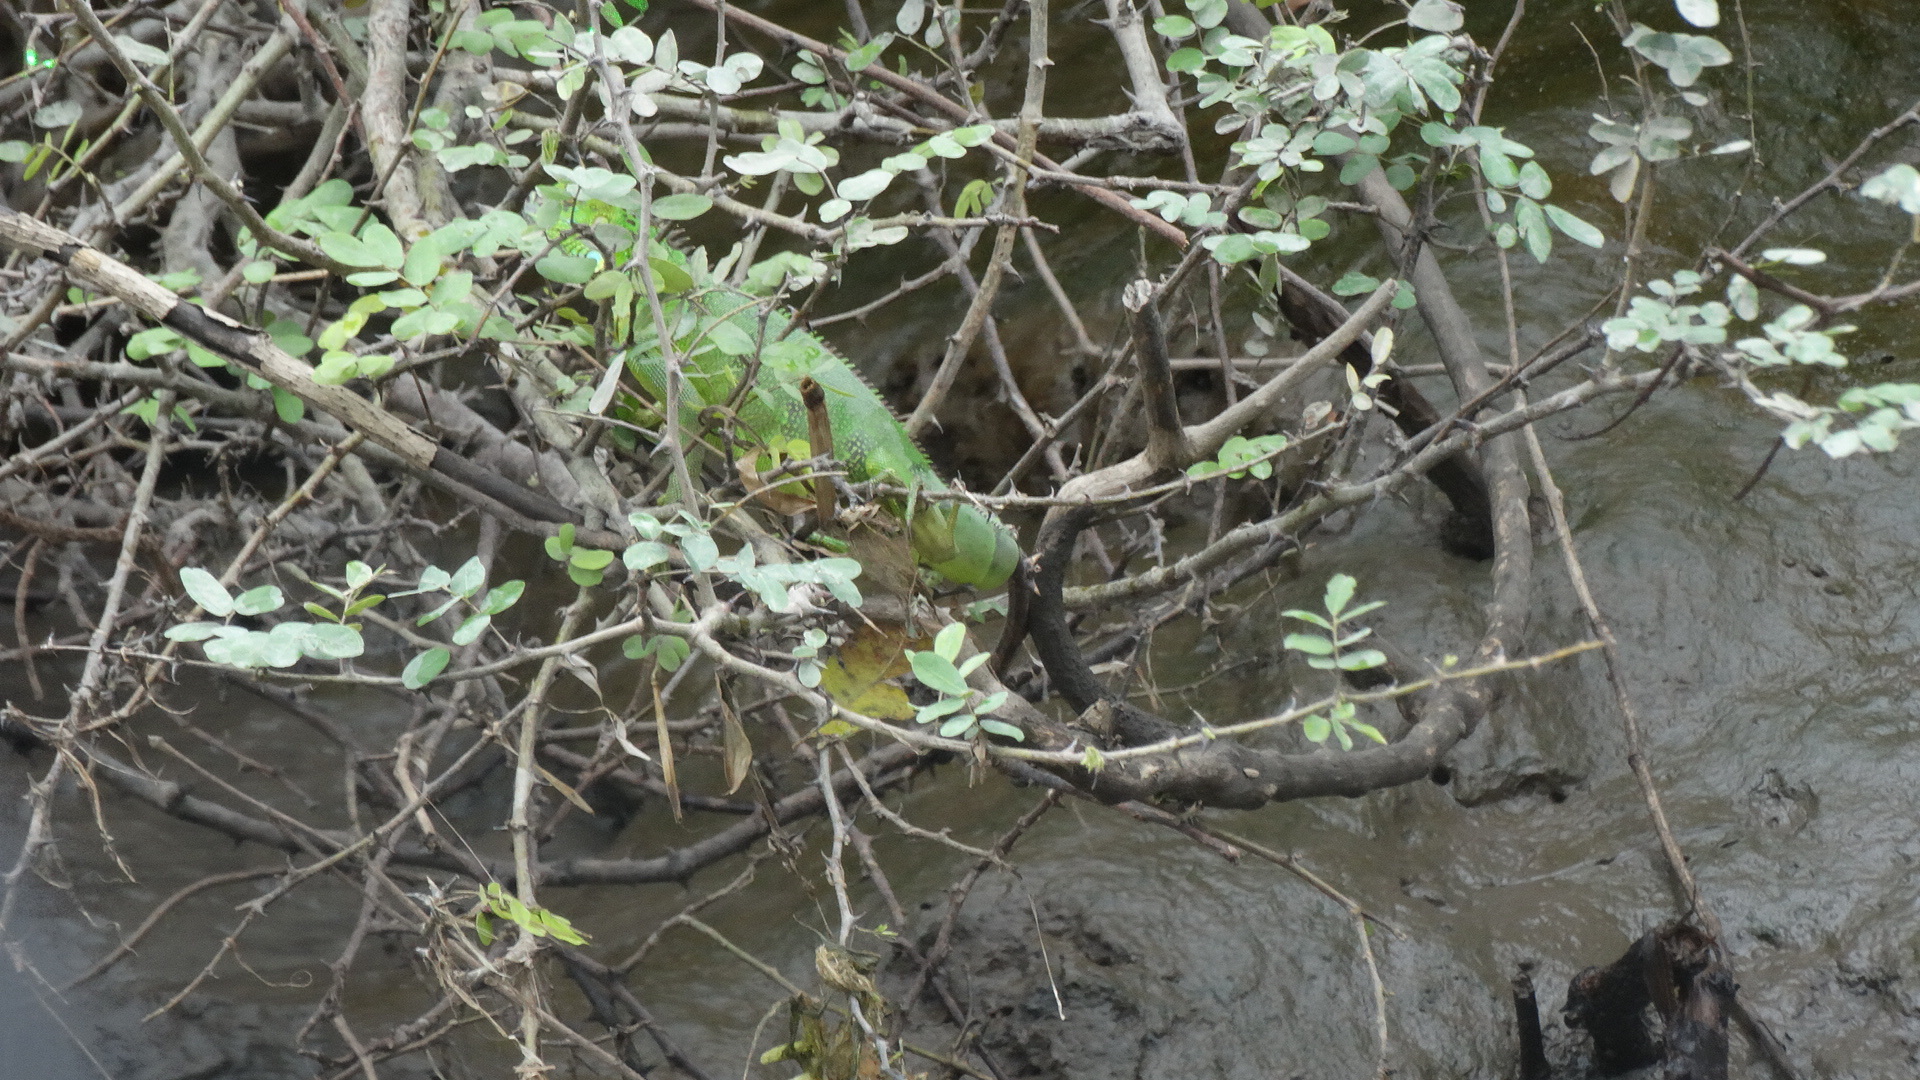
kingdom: Animalia
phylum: Chordata
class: Squamata
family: Iguanidae
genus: Iguana
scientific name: Iguana iguana
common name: Green iguana
